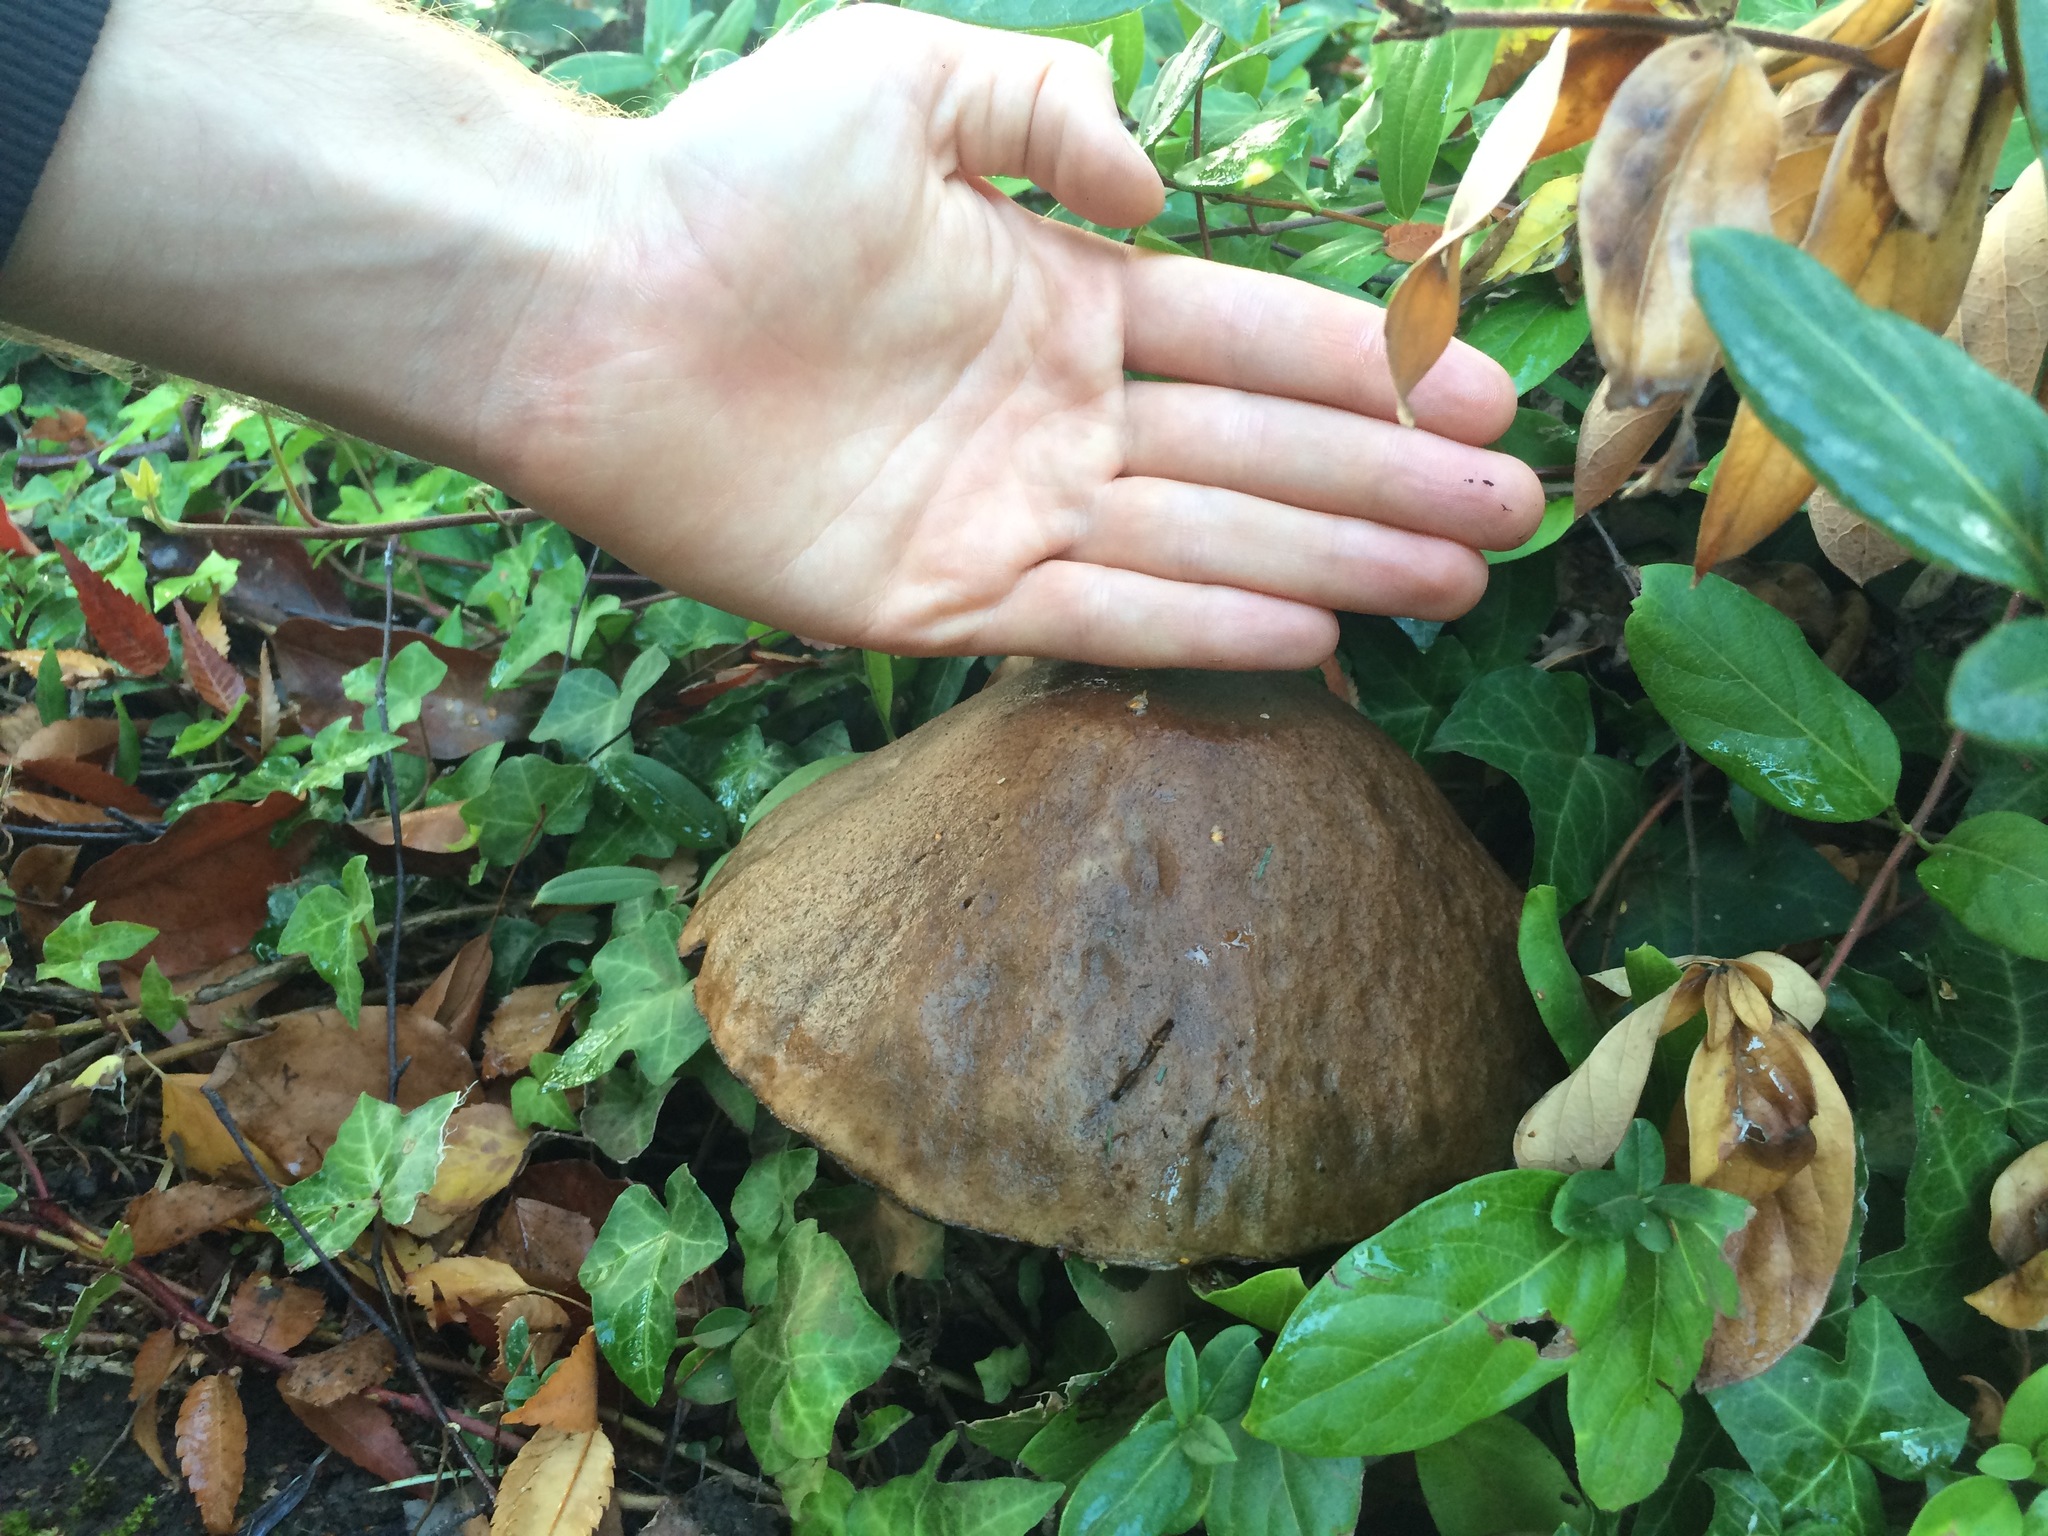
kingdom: Fungi
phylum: Basidiomycota
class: Agaricomycetes
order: Boletales
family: Boletaceae
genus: Leccinum
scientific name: Leccinum scabrum
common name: Blushing bolete
